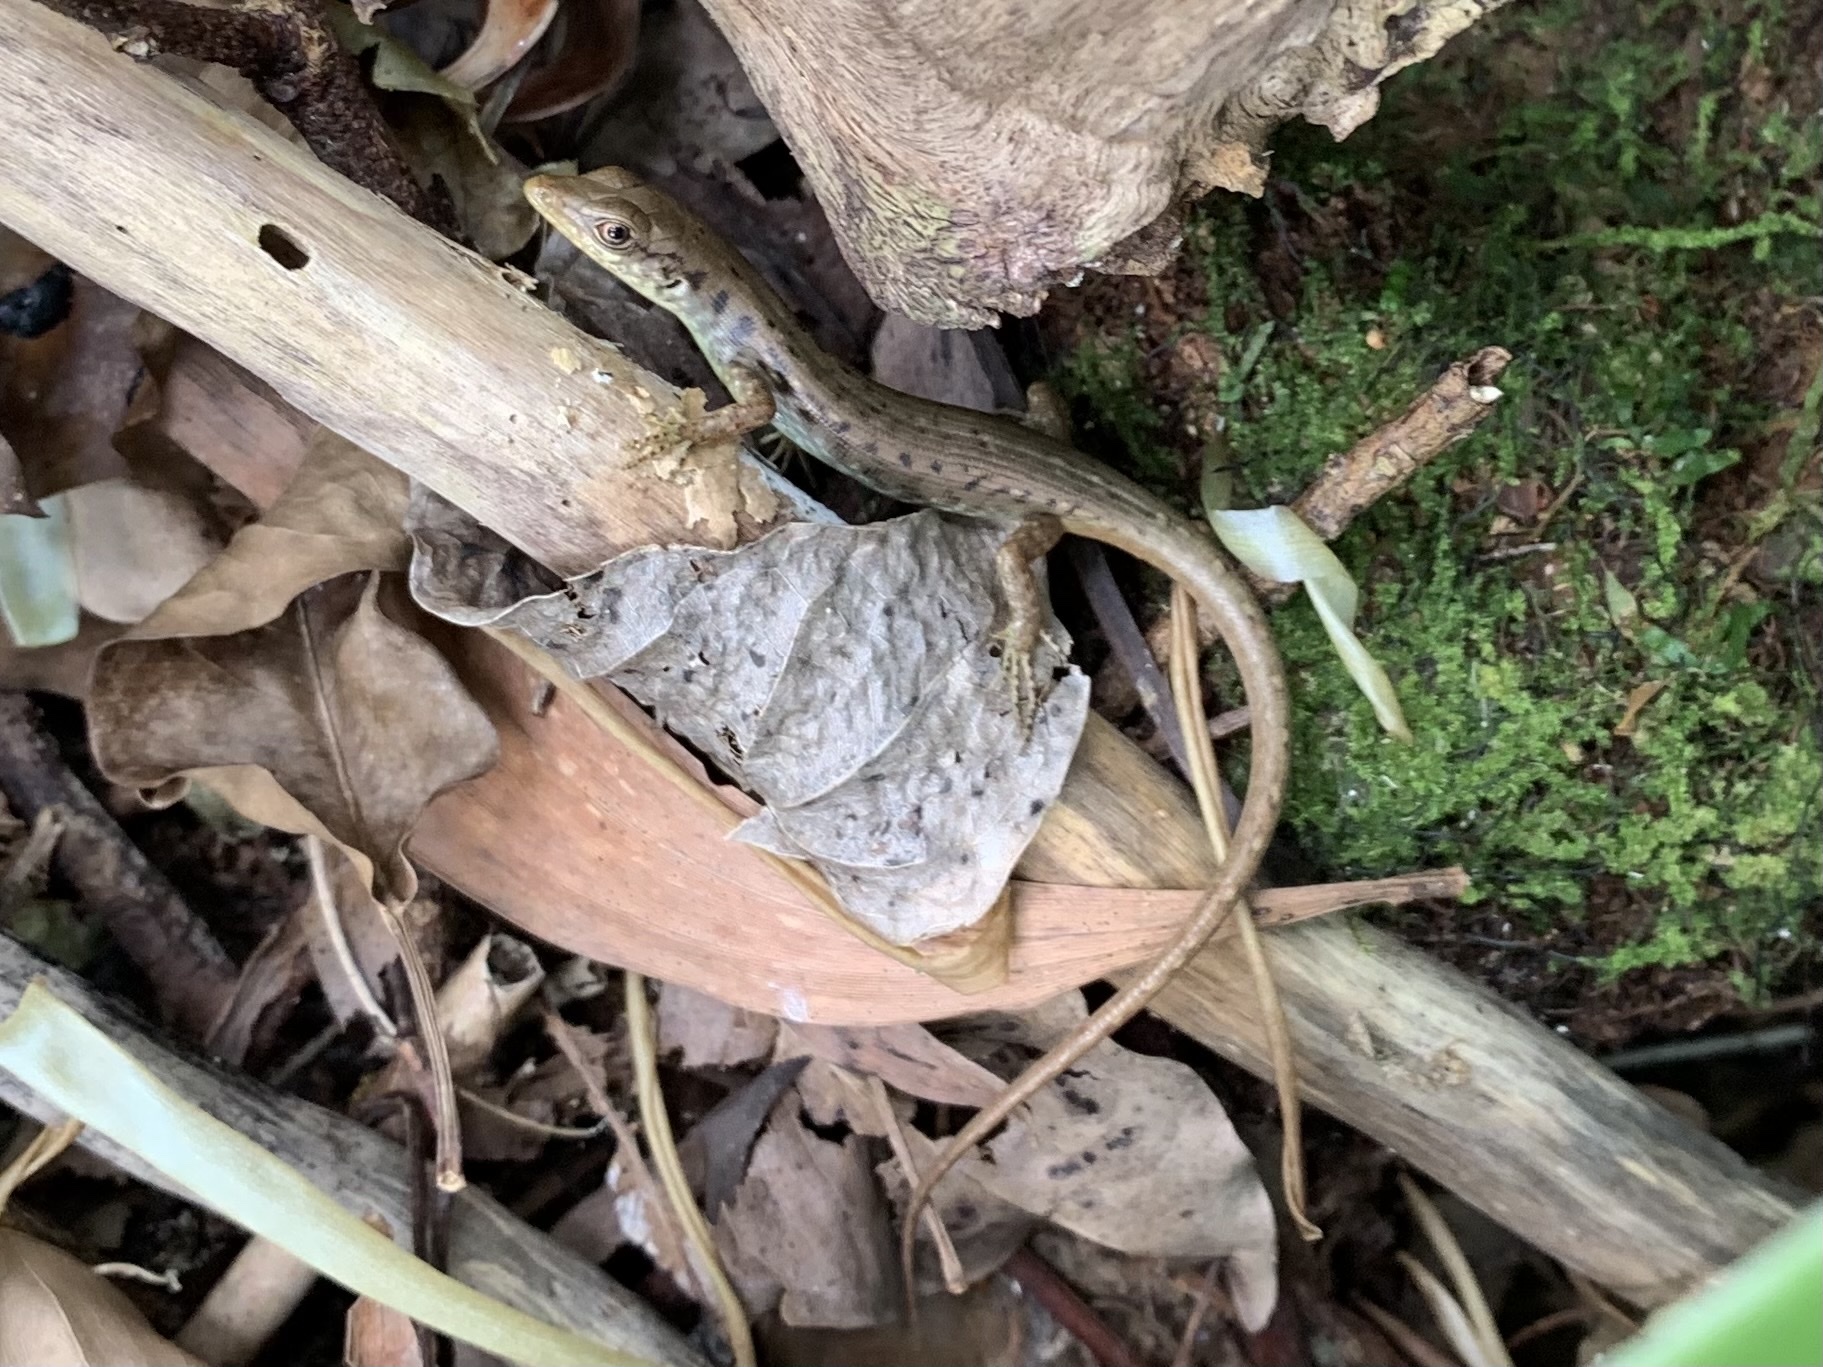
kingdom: Animalia
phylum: Chordata
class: Squamata
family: Scincidae
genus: Emoia
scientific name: Emoia aneityumensis
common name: Medway's emo skink
